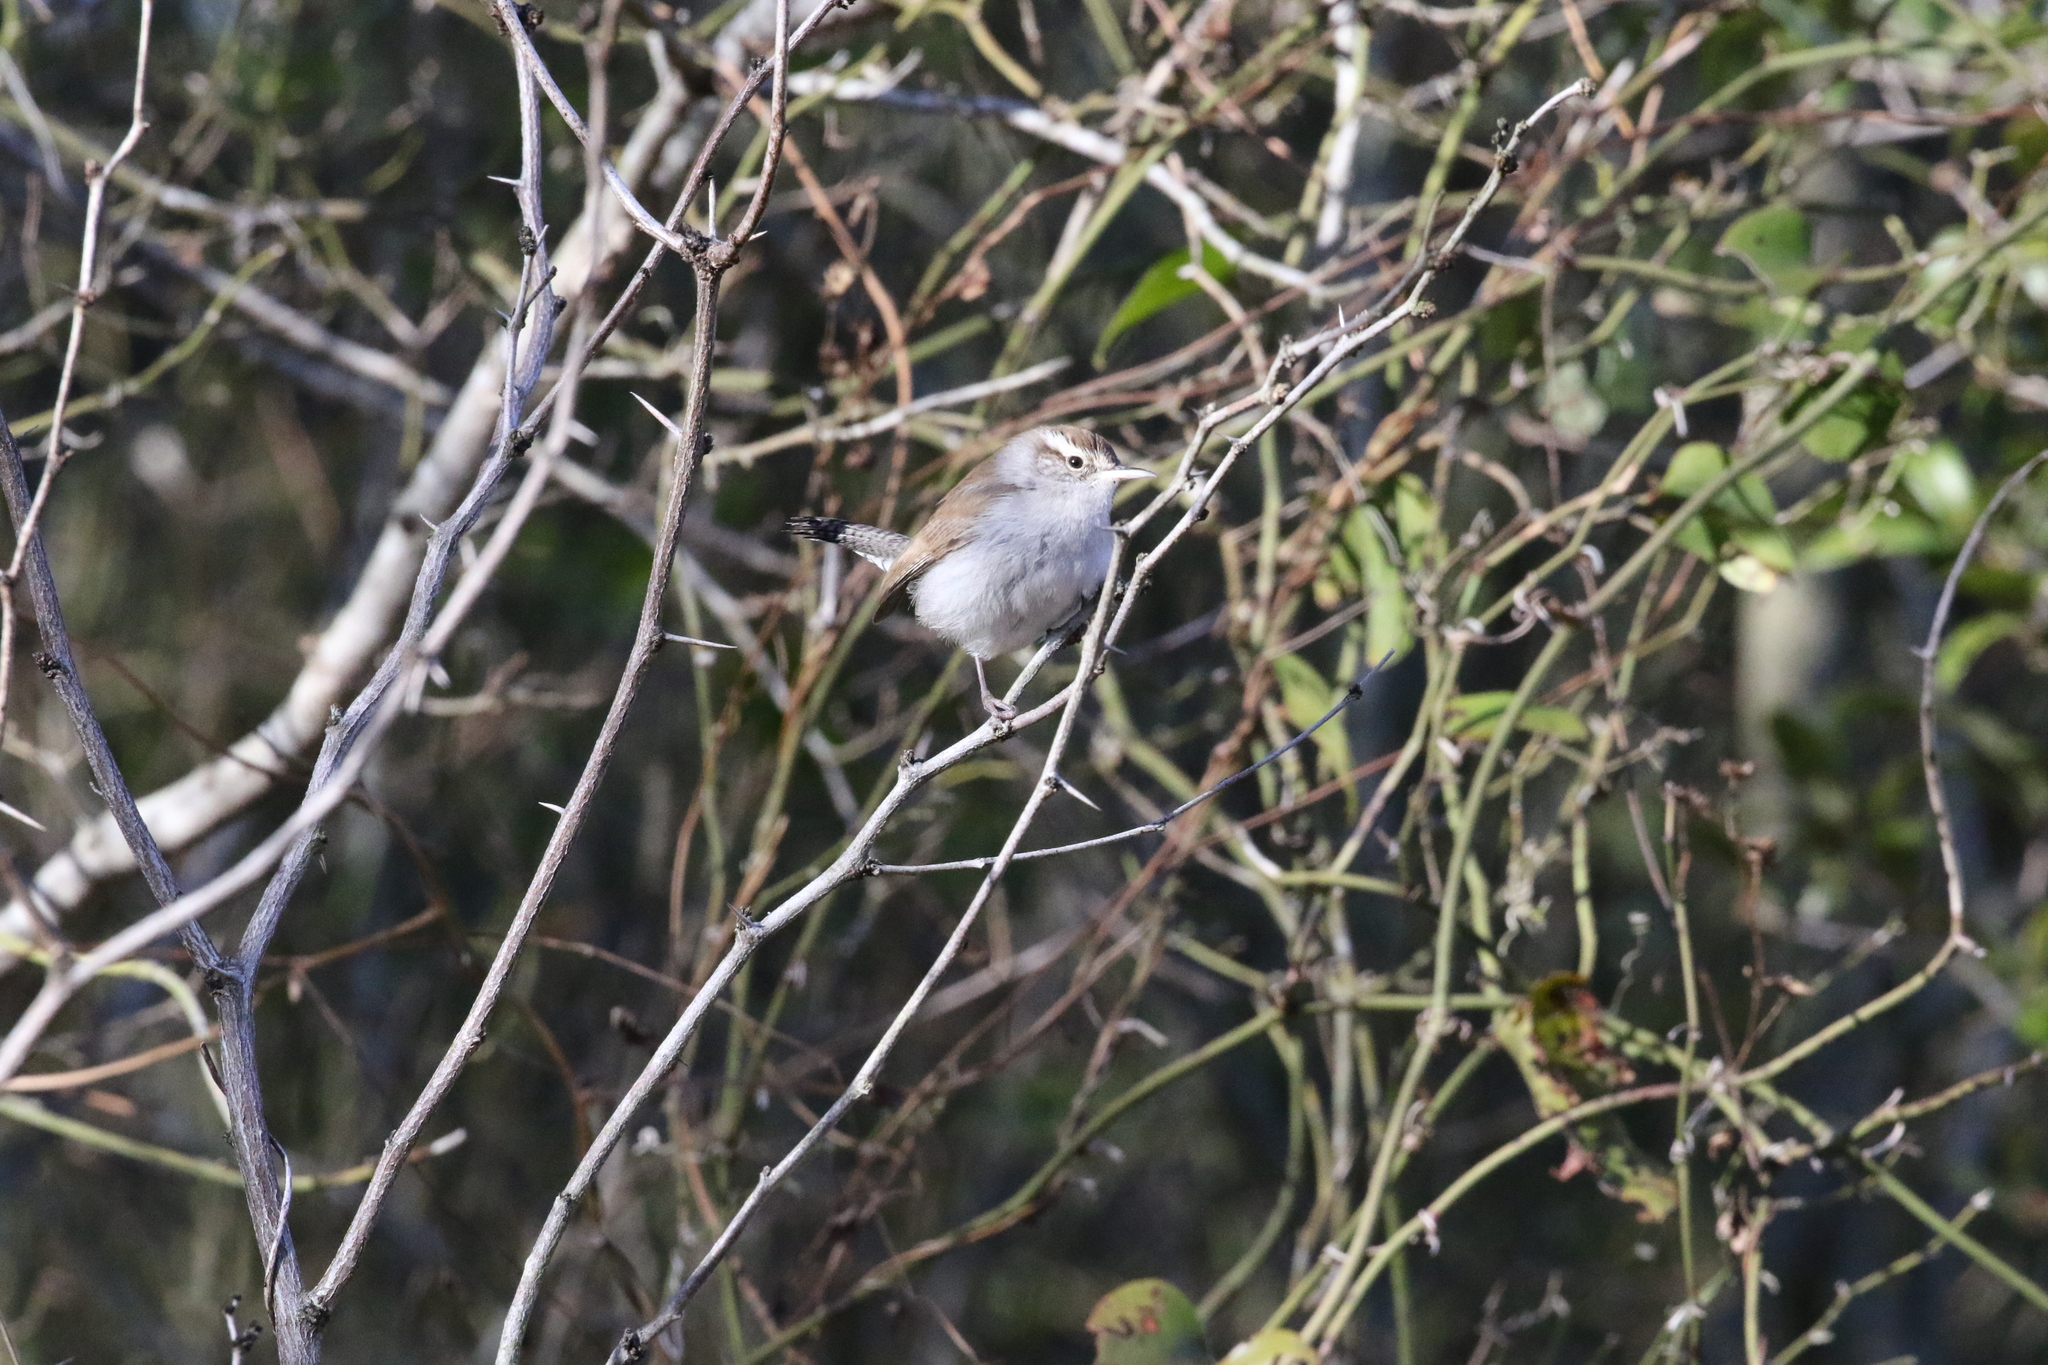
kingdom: Animalia
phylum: Chordata
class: Aves
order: Passeriformes
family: Troglodytidae
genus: Thryomanes
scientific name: Thryomanes bewickii
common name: Bewick's wren
